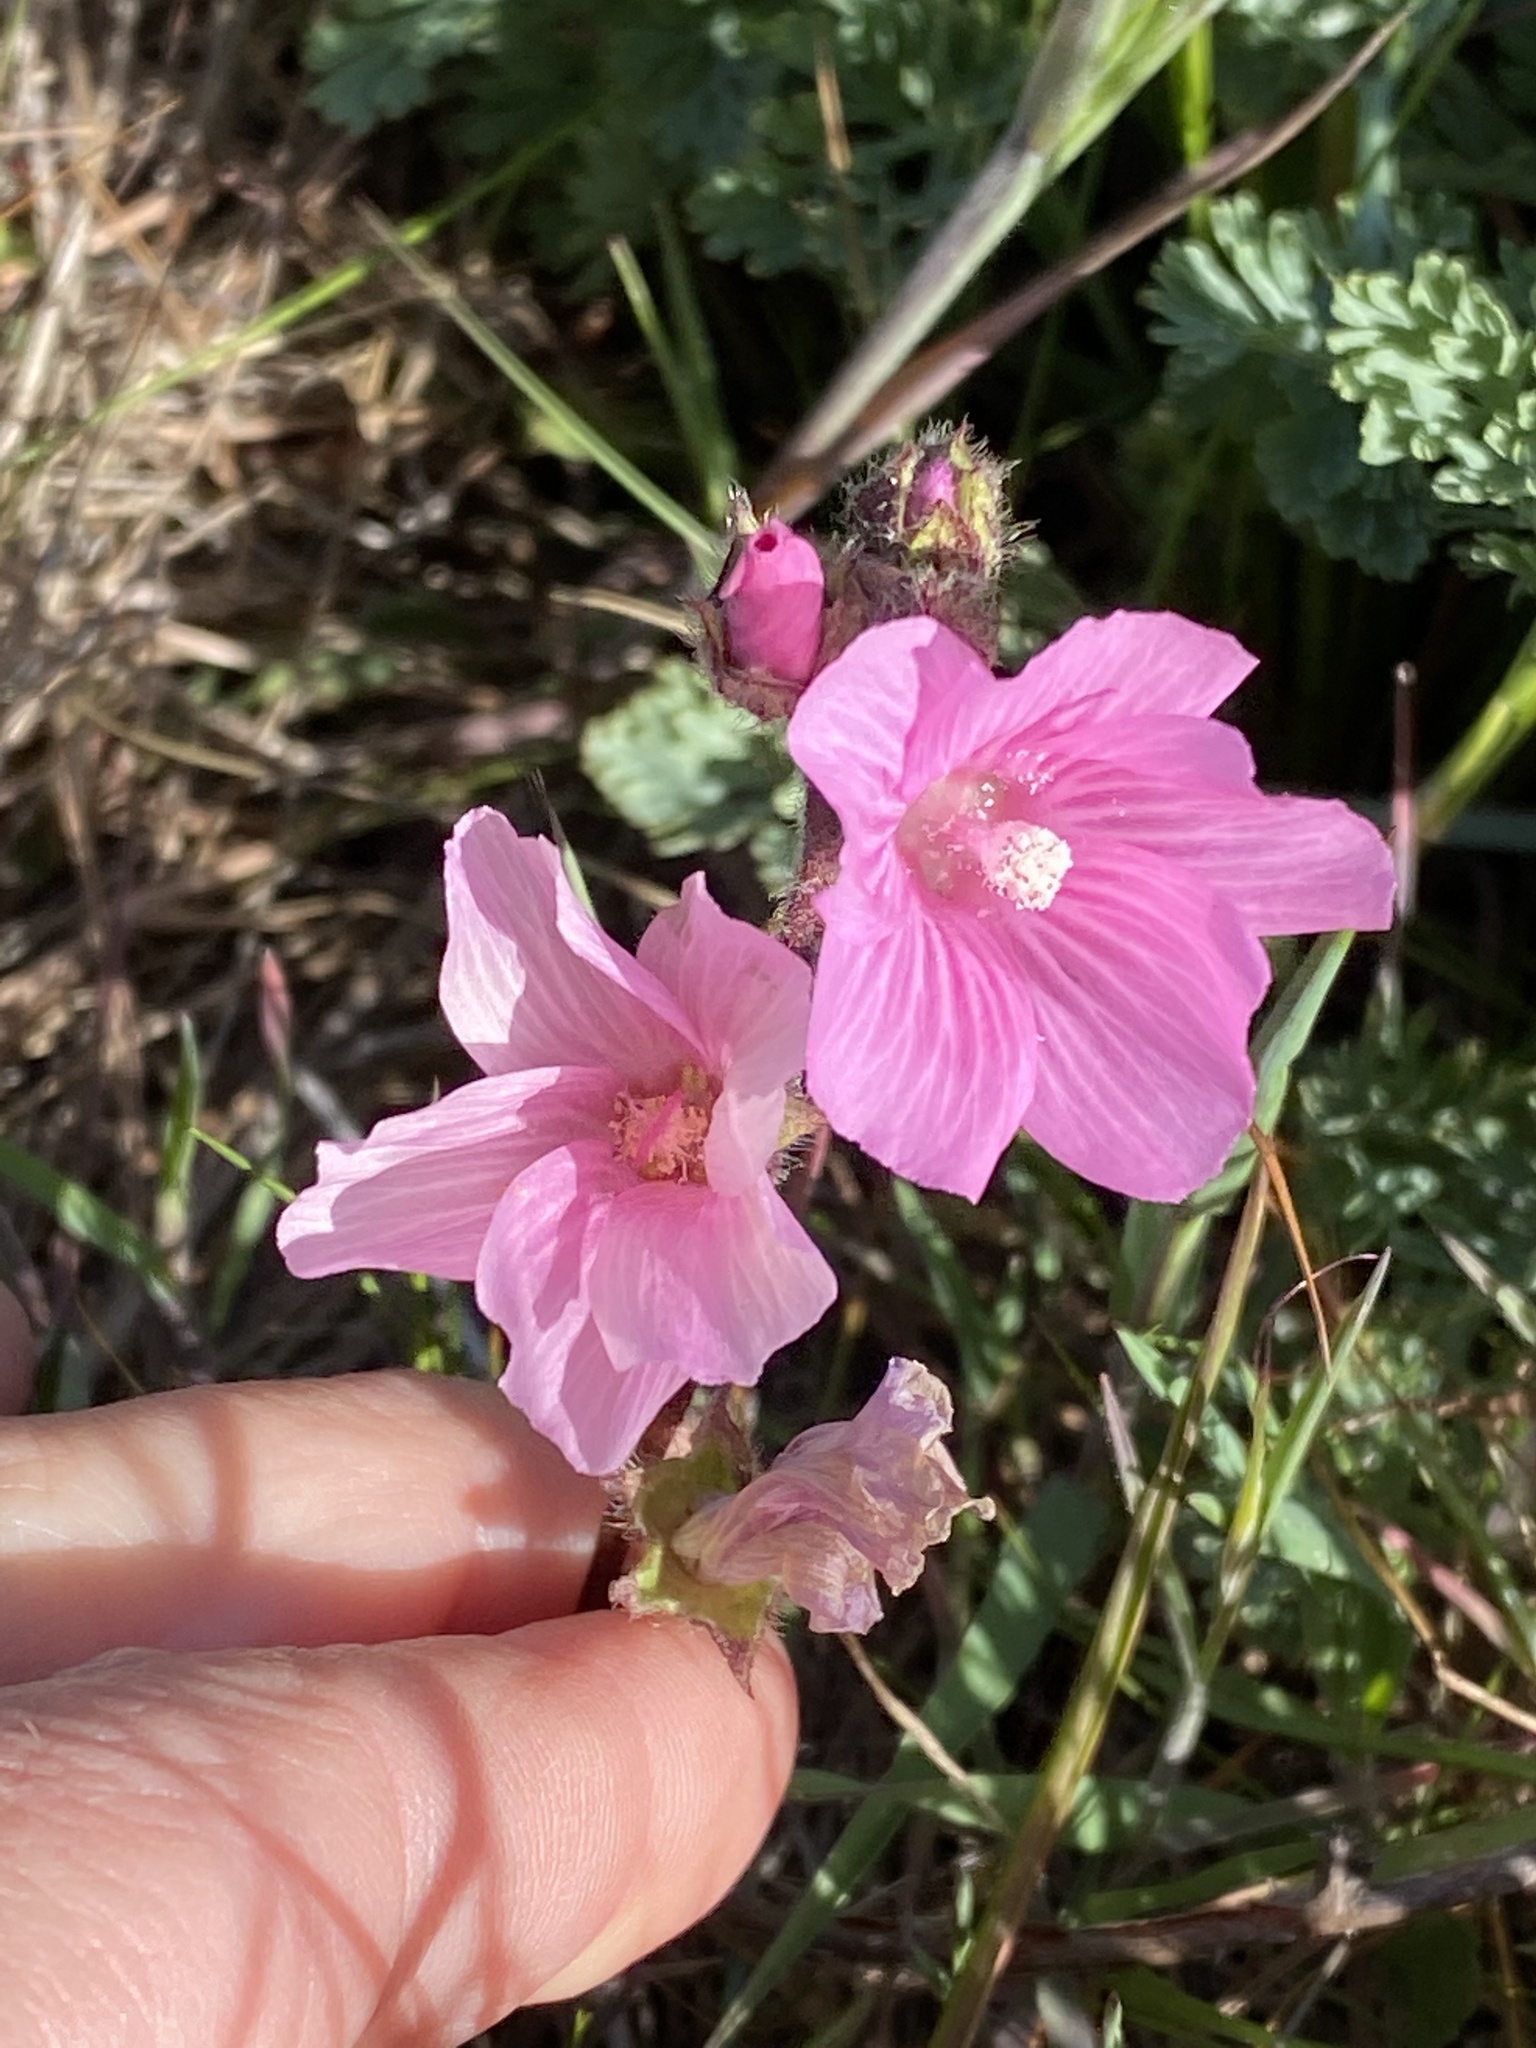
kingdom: Plantae
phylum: Tracheophyta
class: Magnoliopsida
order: Malvales
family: Malvaceae
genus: Sidalcea
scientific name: Sidalcea malviflora
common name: Greek mallow
